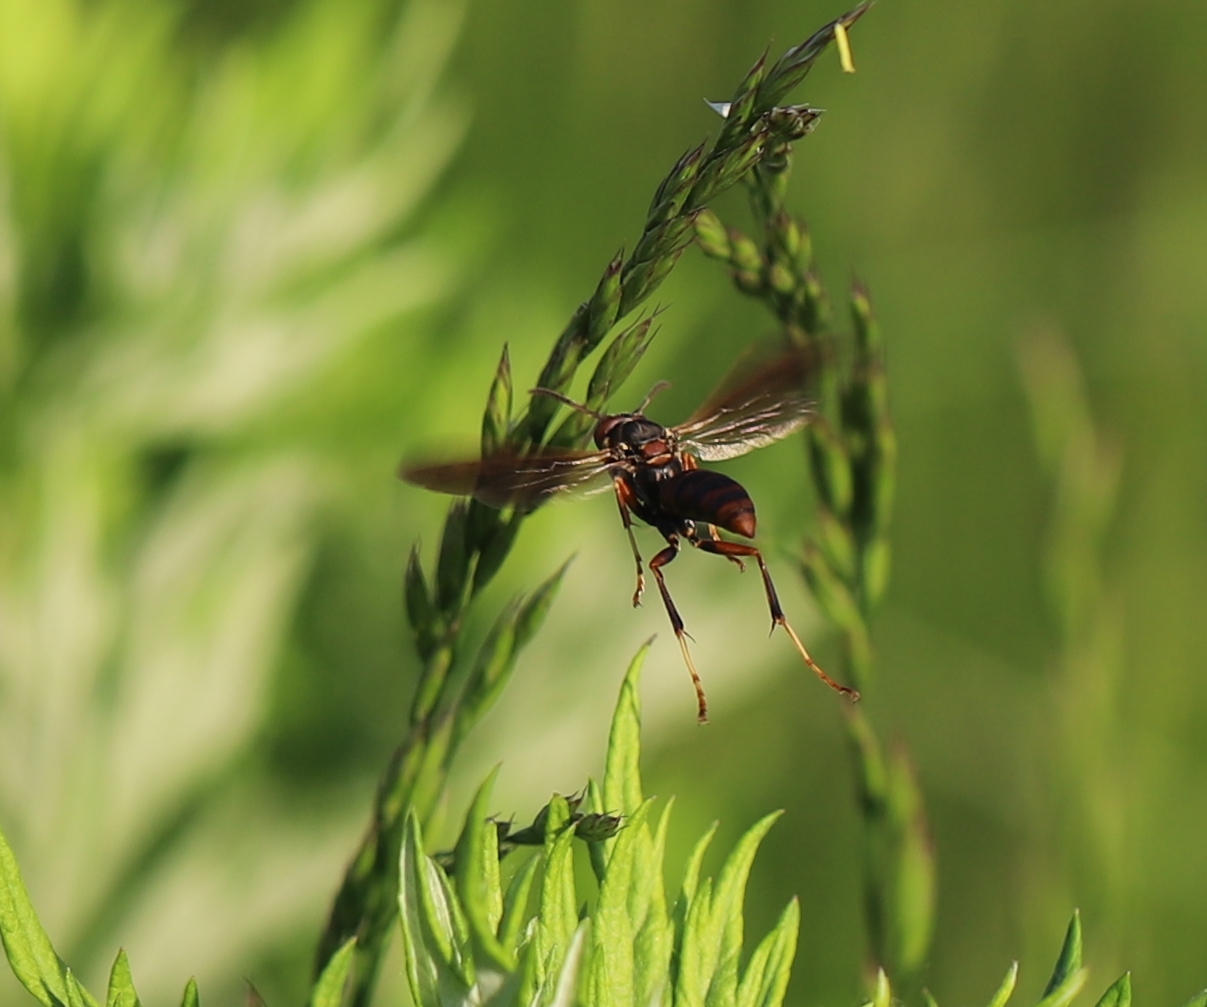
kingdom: Animalia
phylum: Arthropoda
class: Insecta
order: Hymenoptera
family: Eumenidae
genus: Polistes
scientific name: Polistes fuscatus
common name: Dark paper wasp
